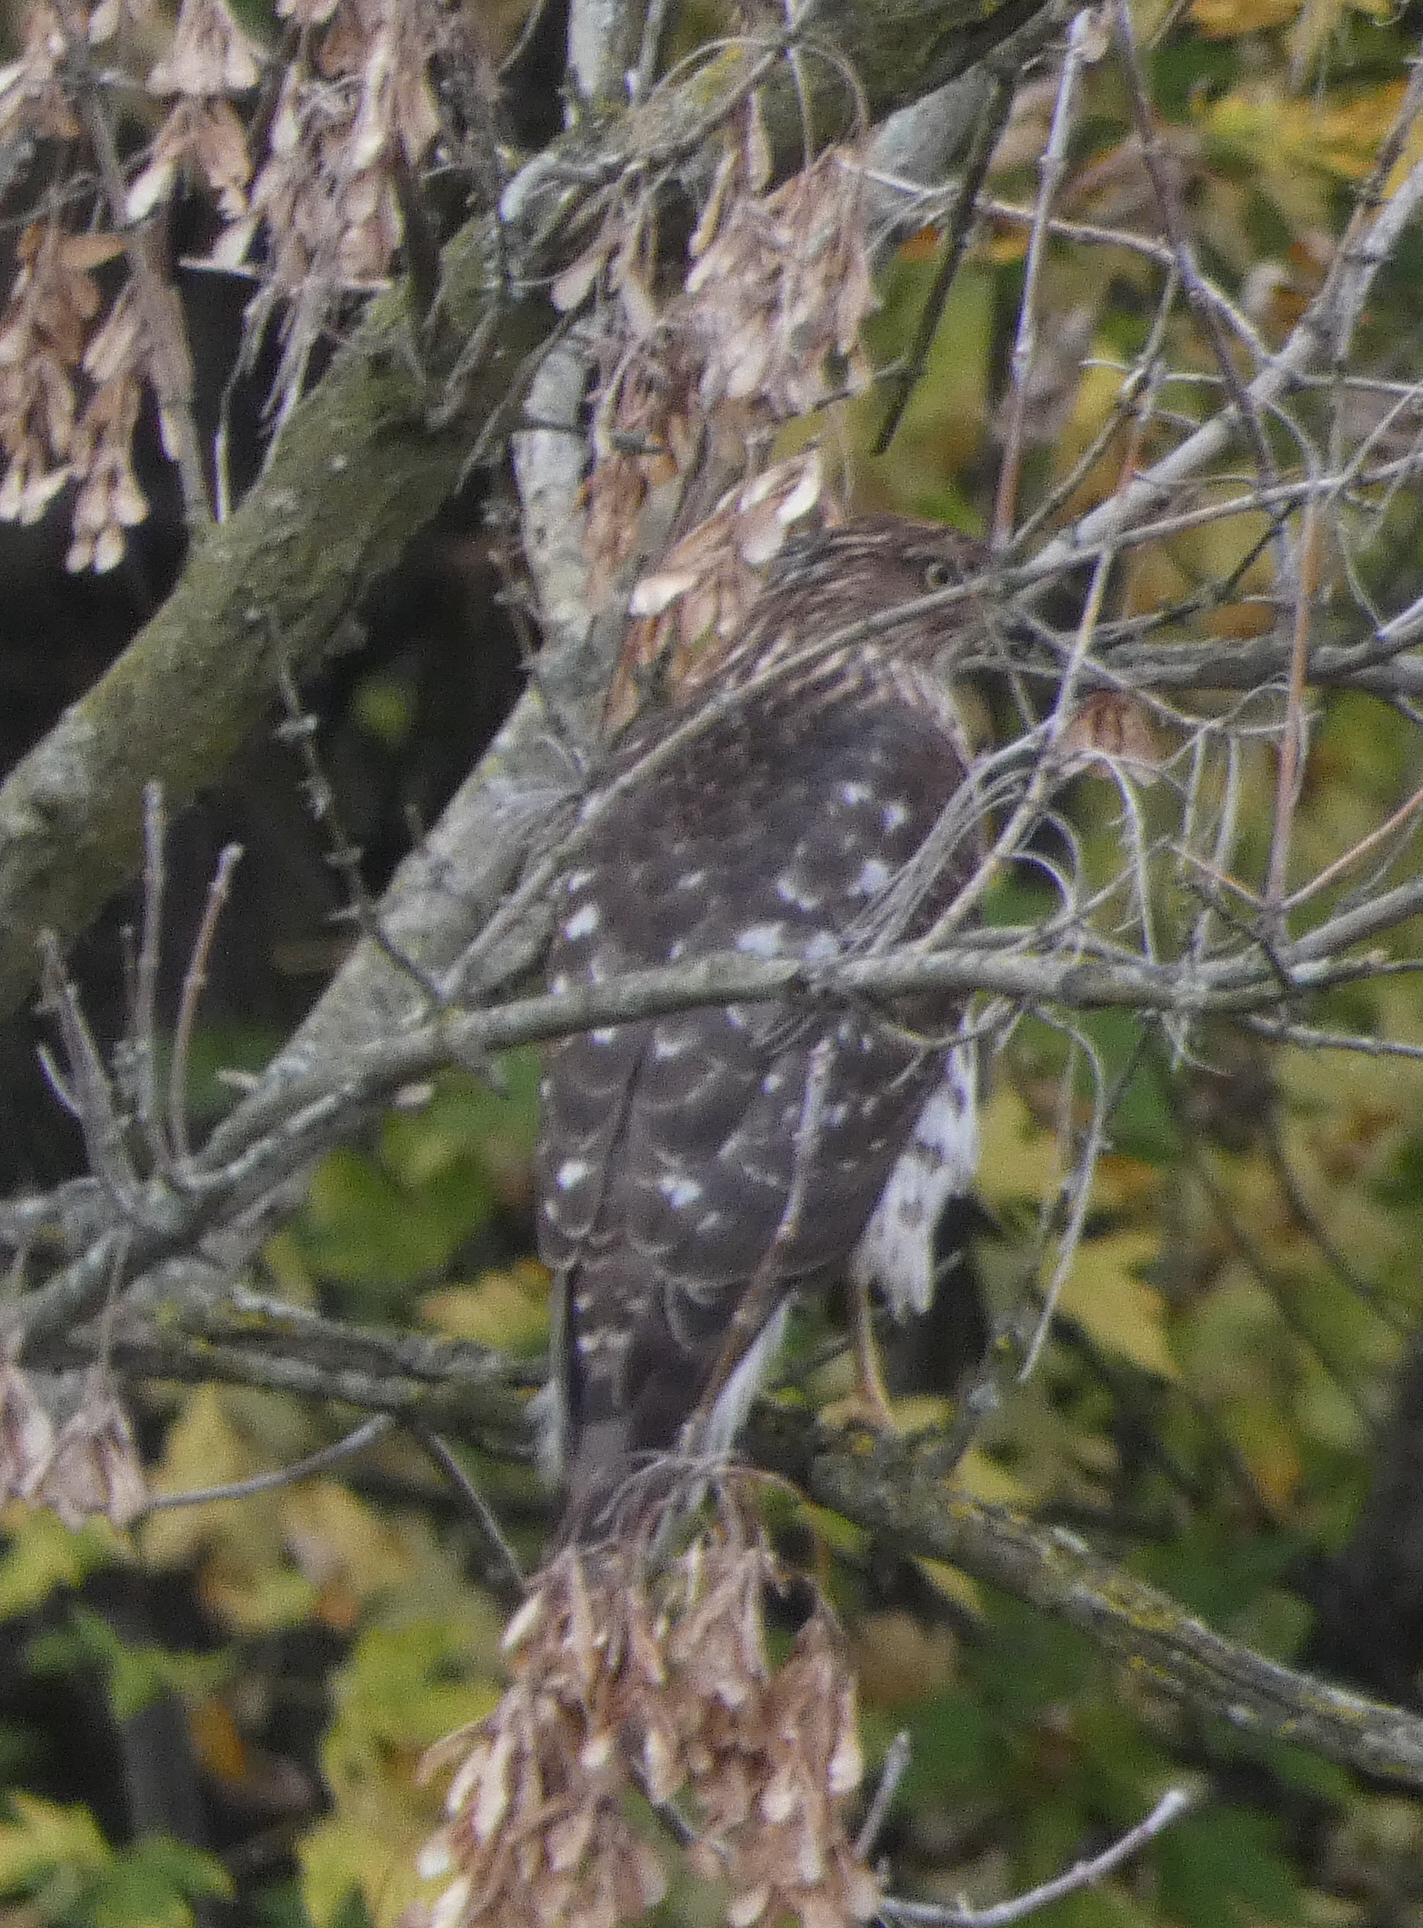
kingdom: Animalia
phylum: Chordata
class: Aves
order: Accipitriformes
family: Accipitridae
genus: Accipiter
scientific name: Accipiter cooperii
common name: Cooper's hawk
